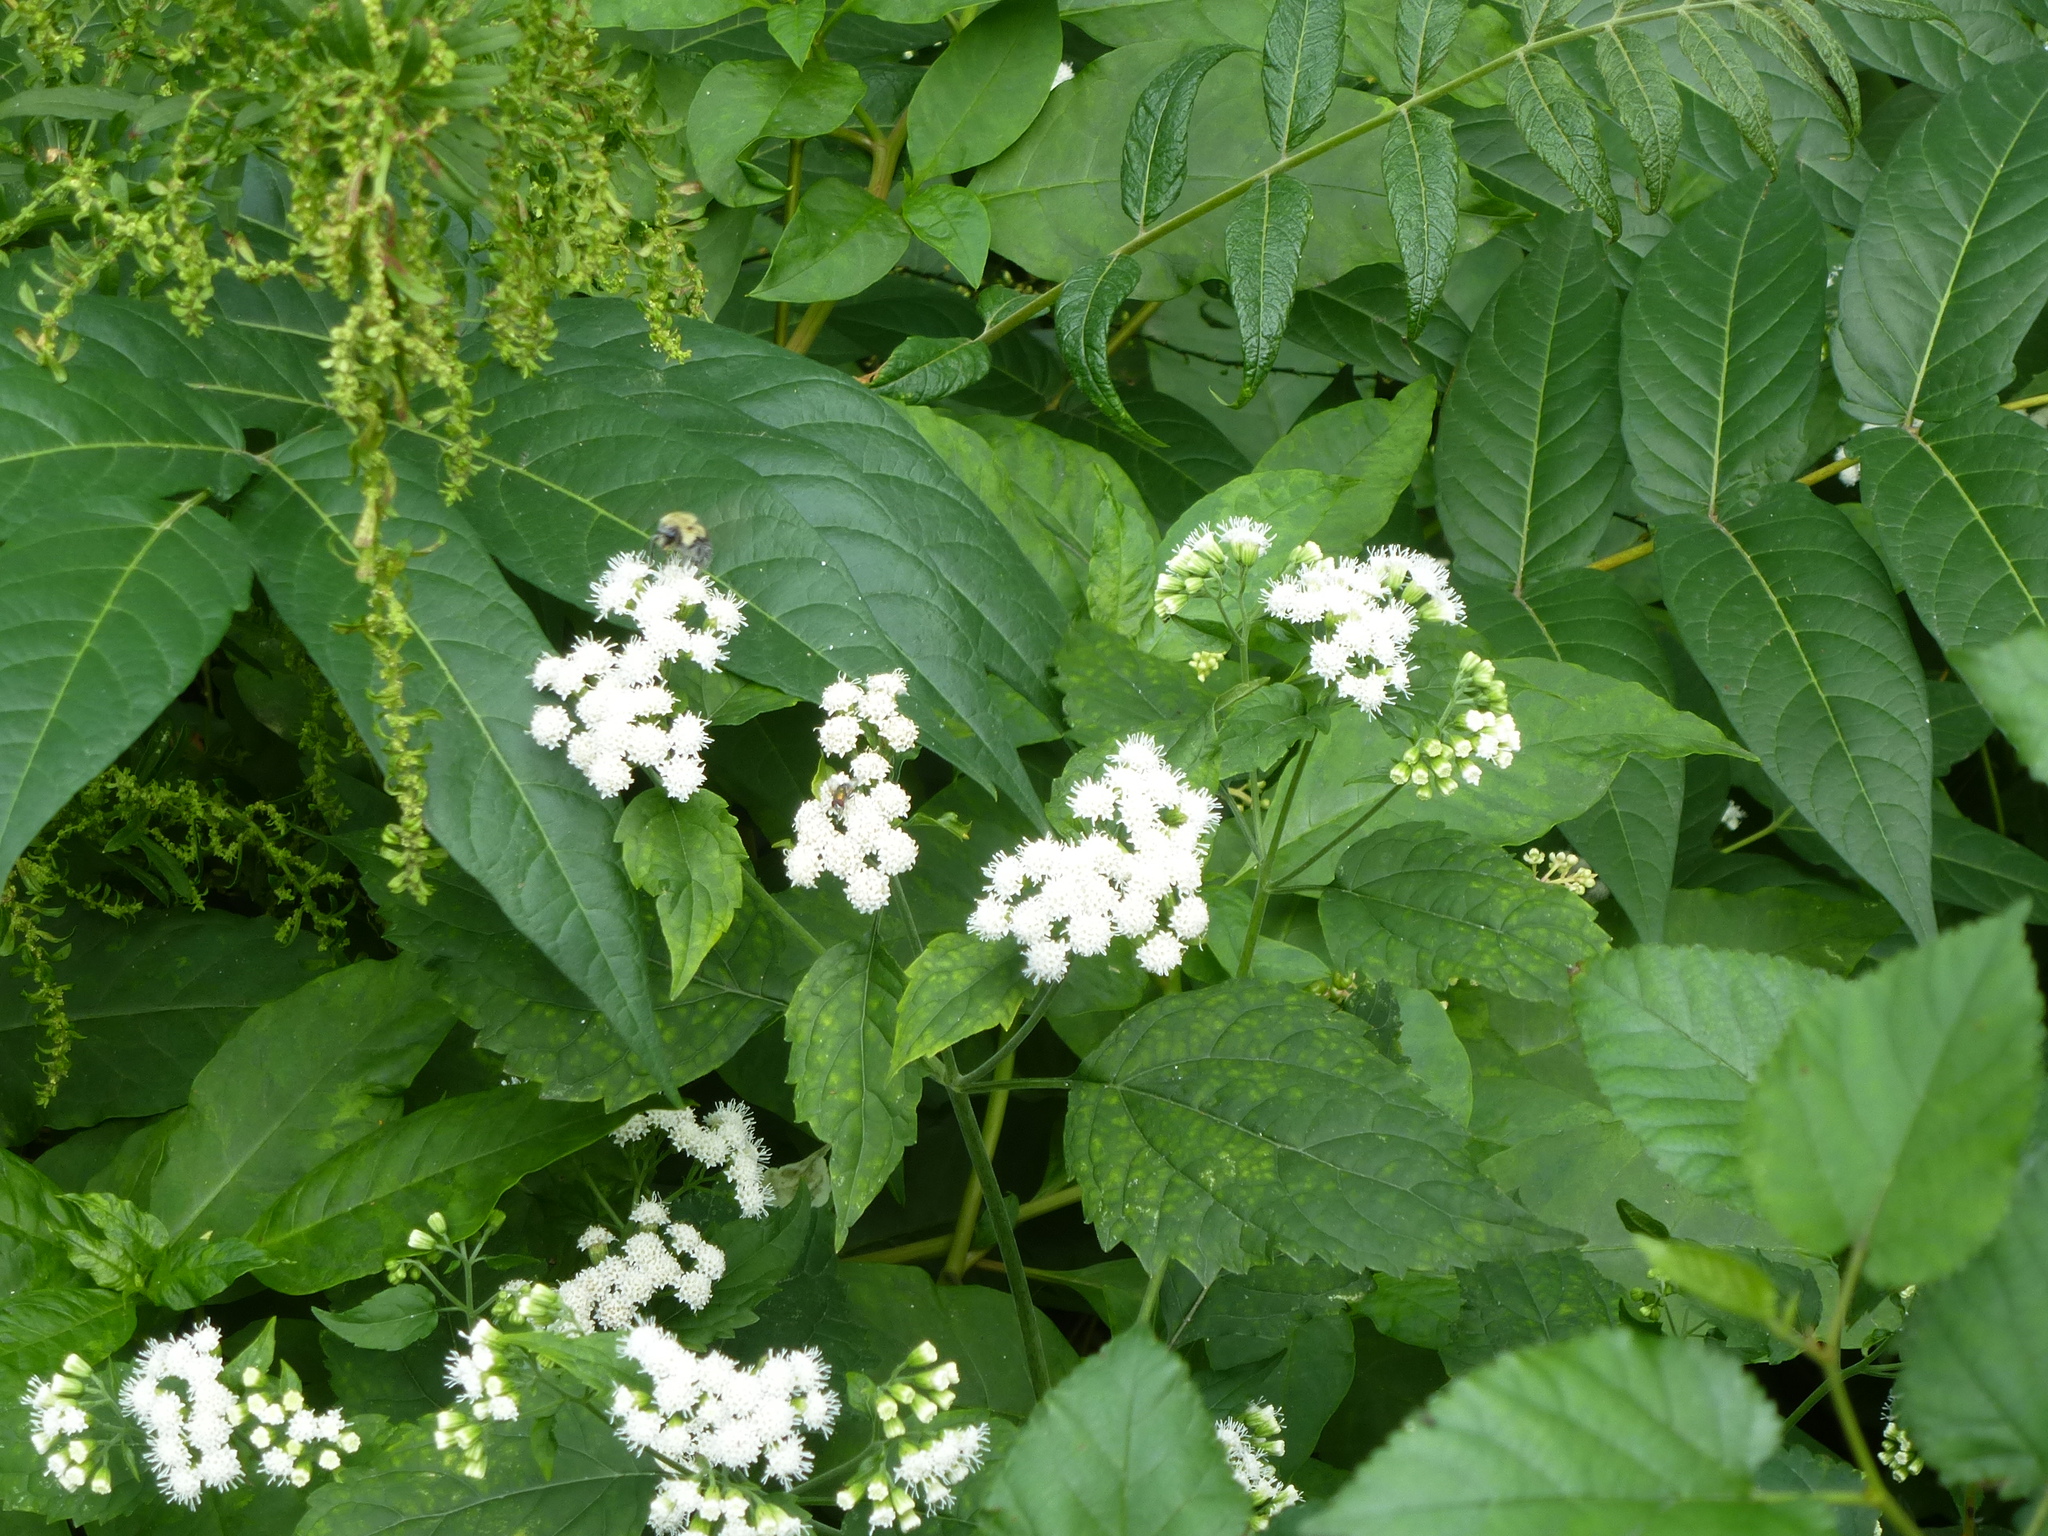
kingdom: Plantae
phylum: Tracheophyta
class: Magnoliopsida
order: Asterales
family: Asteraceae
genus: Ageratina
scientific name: Ageratina altissima
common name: White snakeroot
